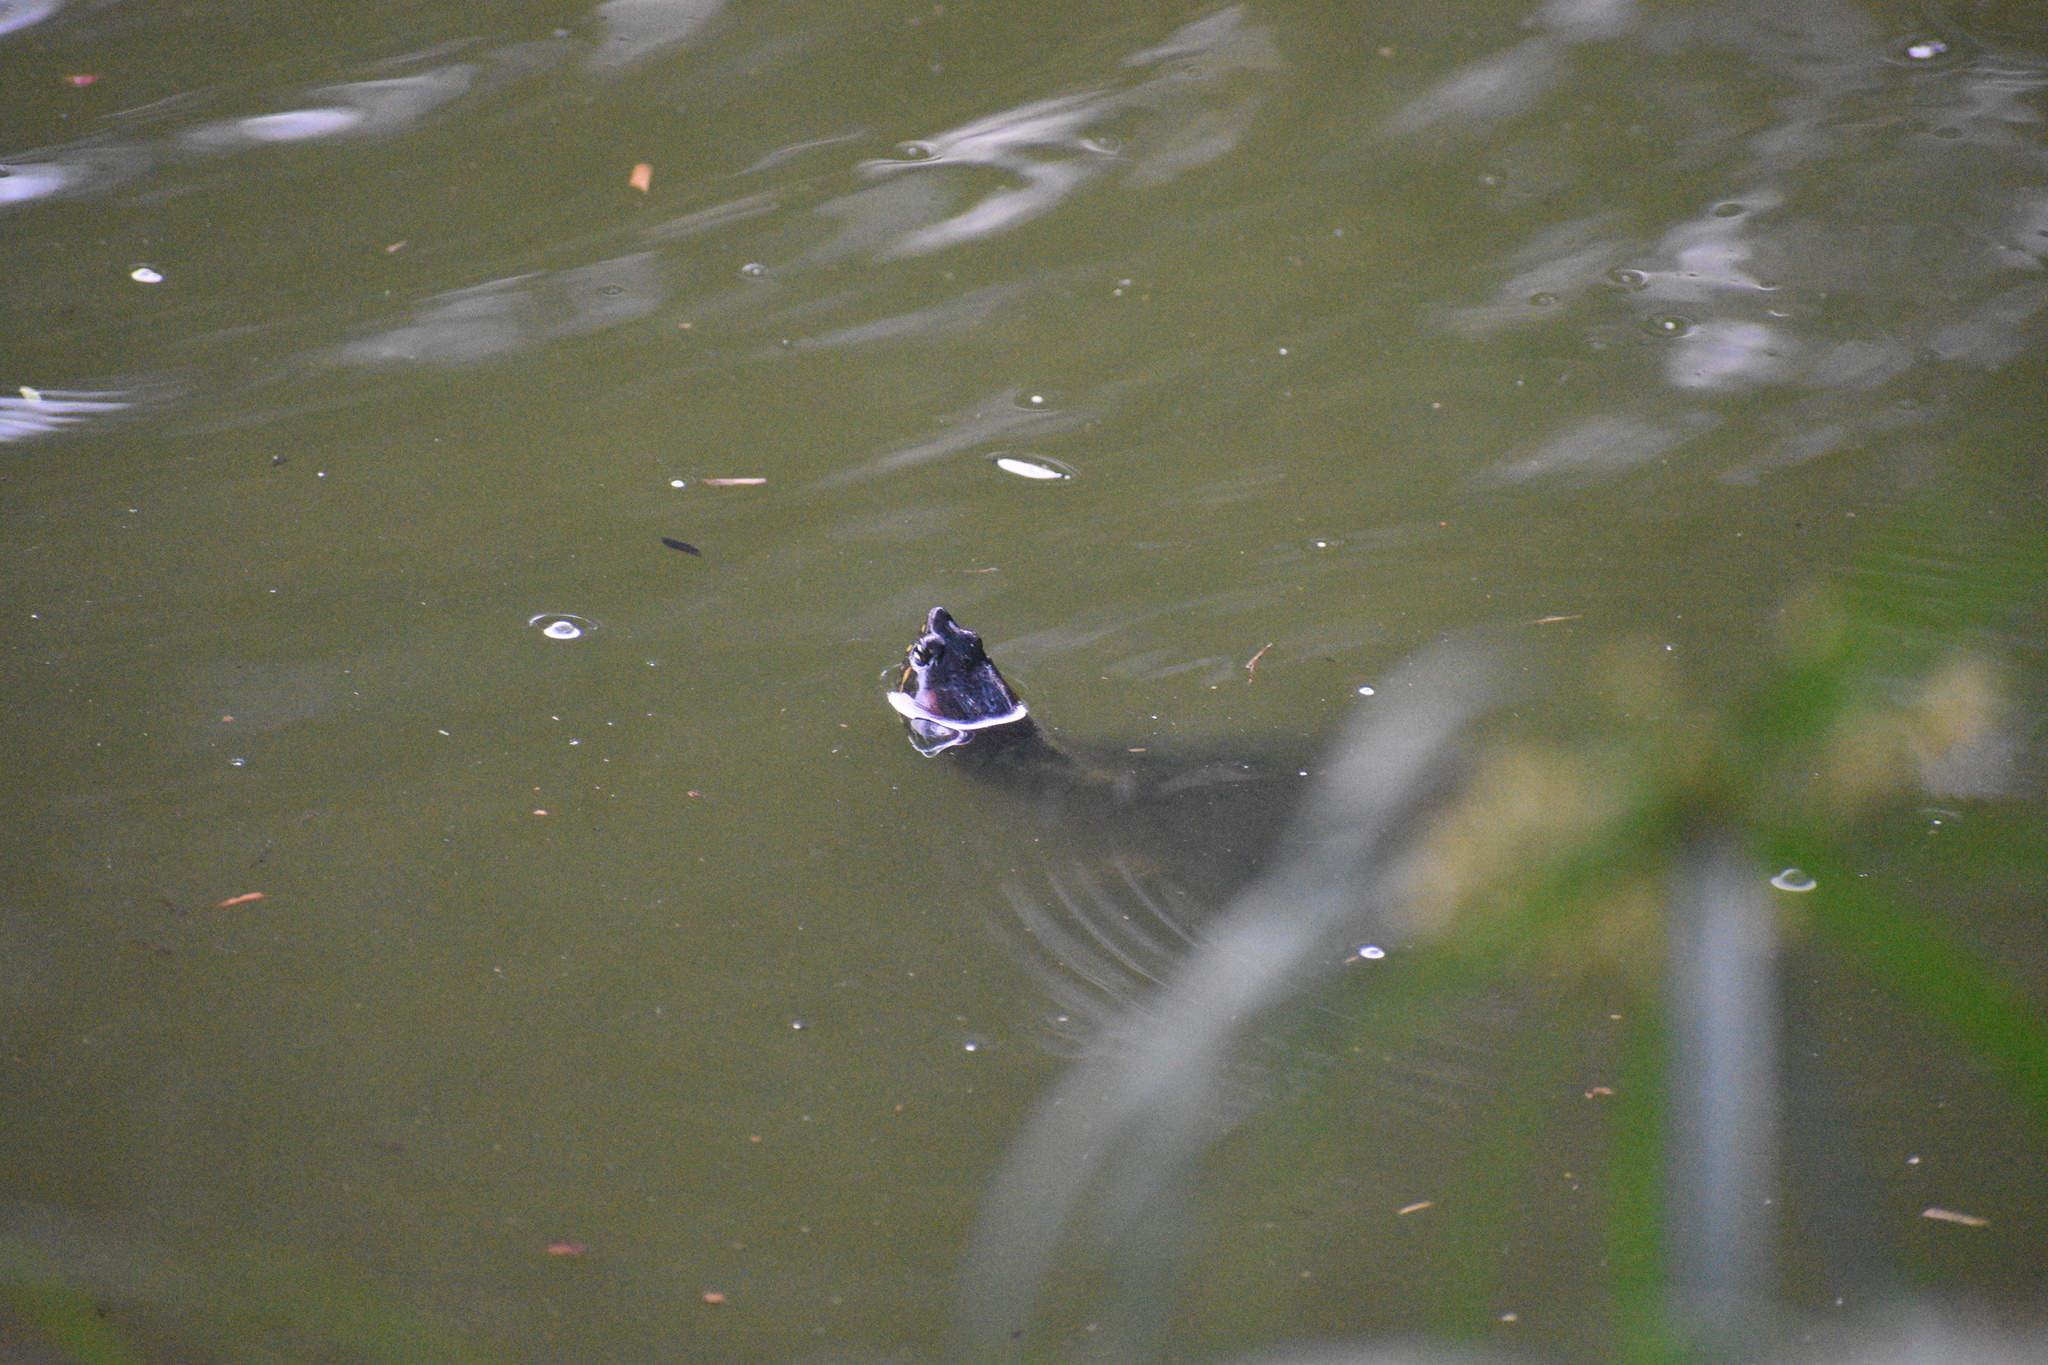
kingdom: Animalia
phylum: Chordata
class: Testudines
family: Emydidae
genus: Trachemys
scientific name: Trachemys callirostris
